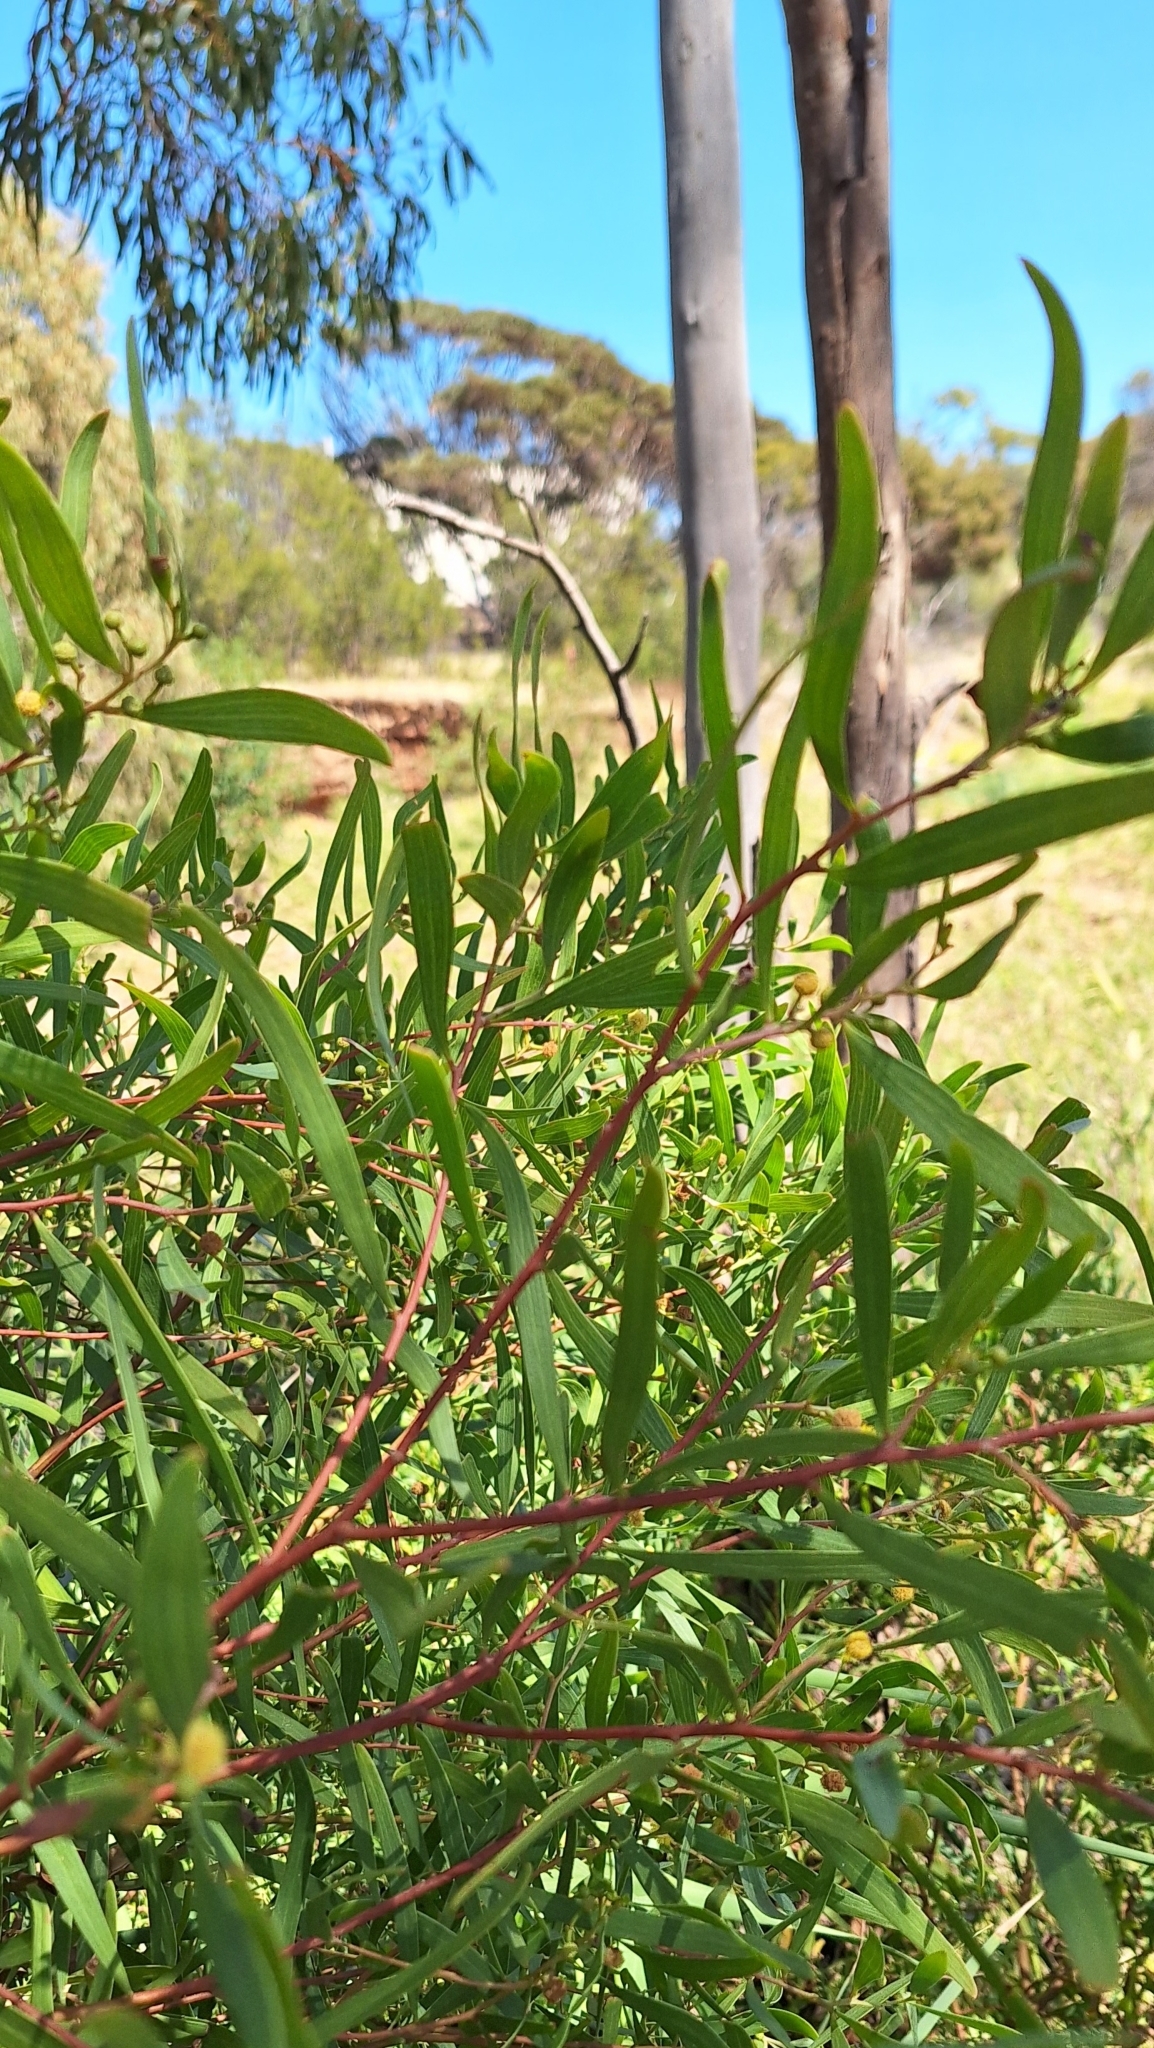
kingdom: Plantae
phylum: Tracheophyta
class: Magnoliopsida
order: Fabales
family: Fabaceae
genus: Acacia
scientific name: Acacia cyclops
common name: Coastal wattle
